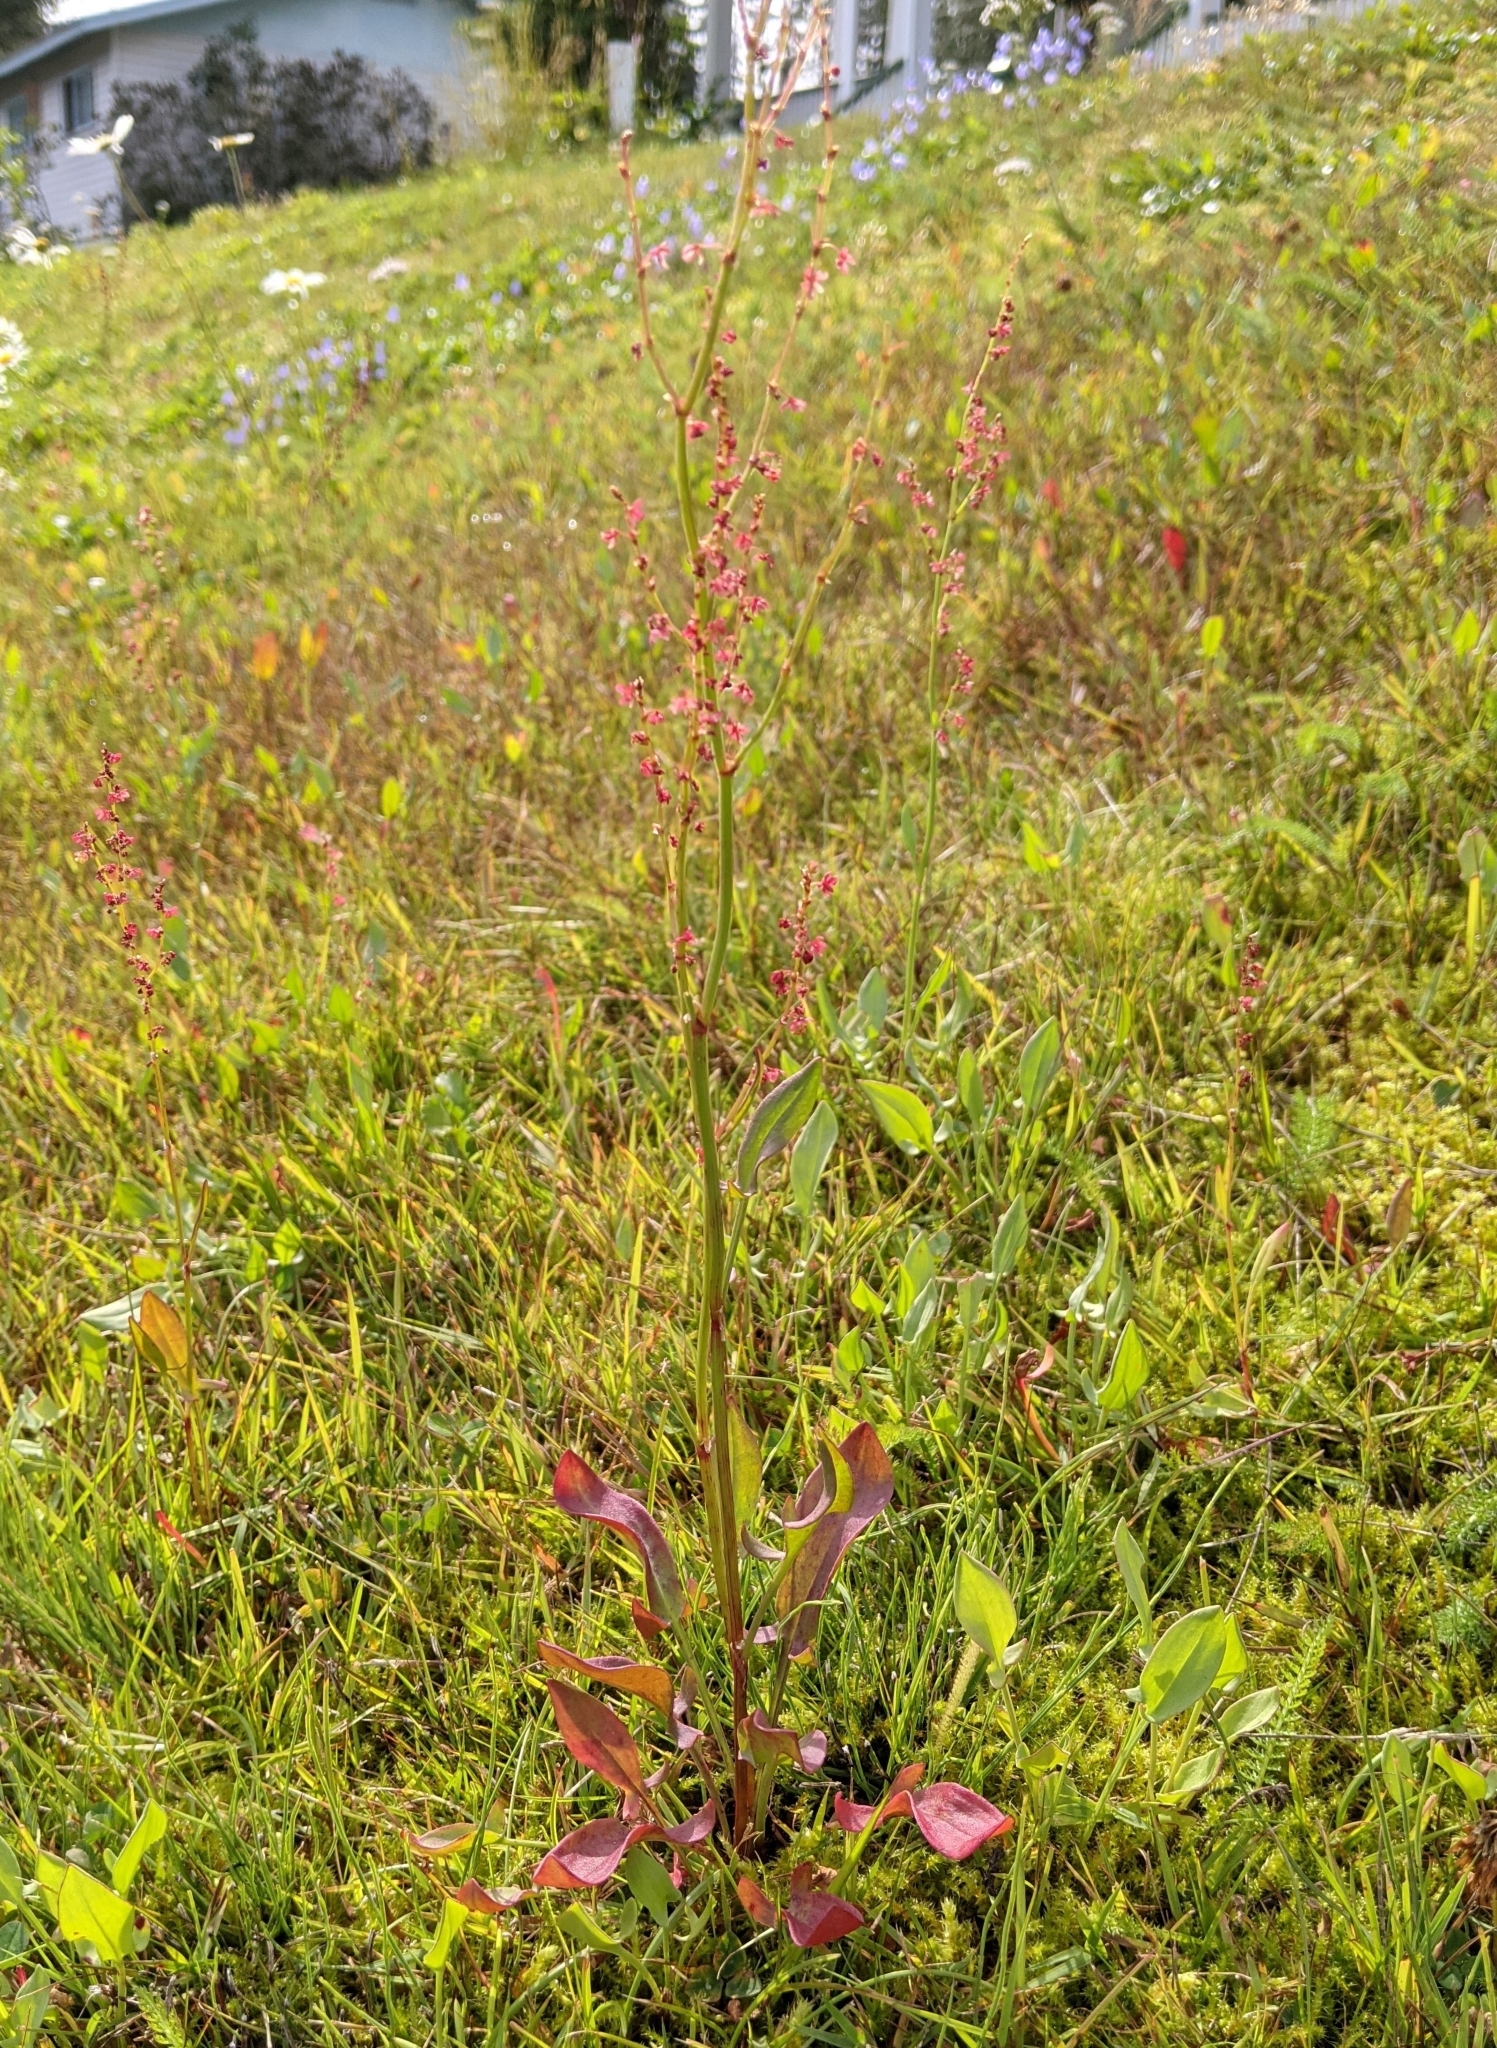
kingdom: Plantae
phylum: Tracheophyta
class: Magnoliopsida
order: Caryophyllales
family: Polygonaceae
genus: Rumex
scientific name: Rumex acetosella
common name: Common sheep sorrel
